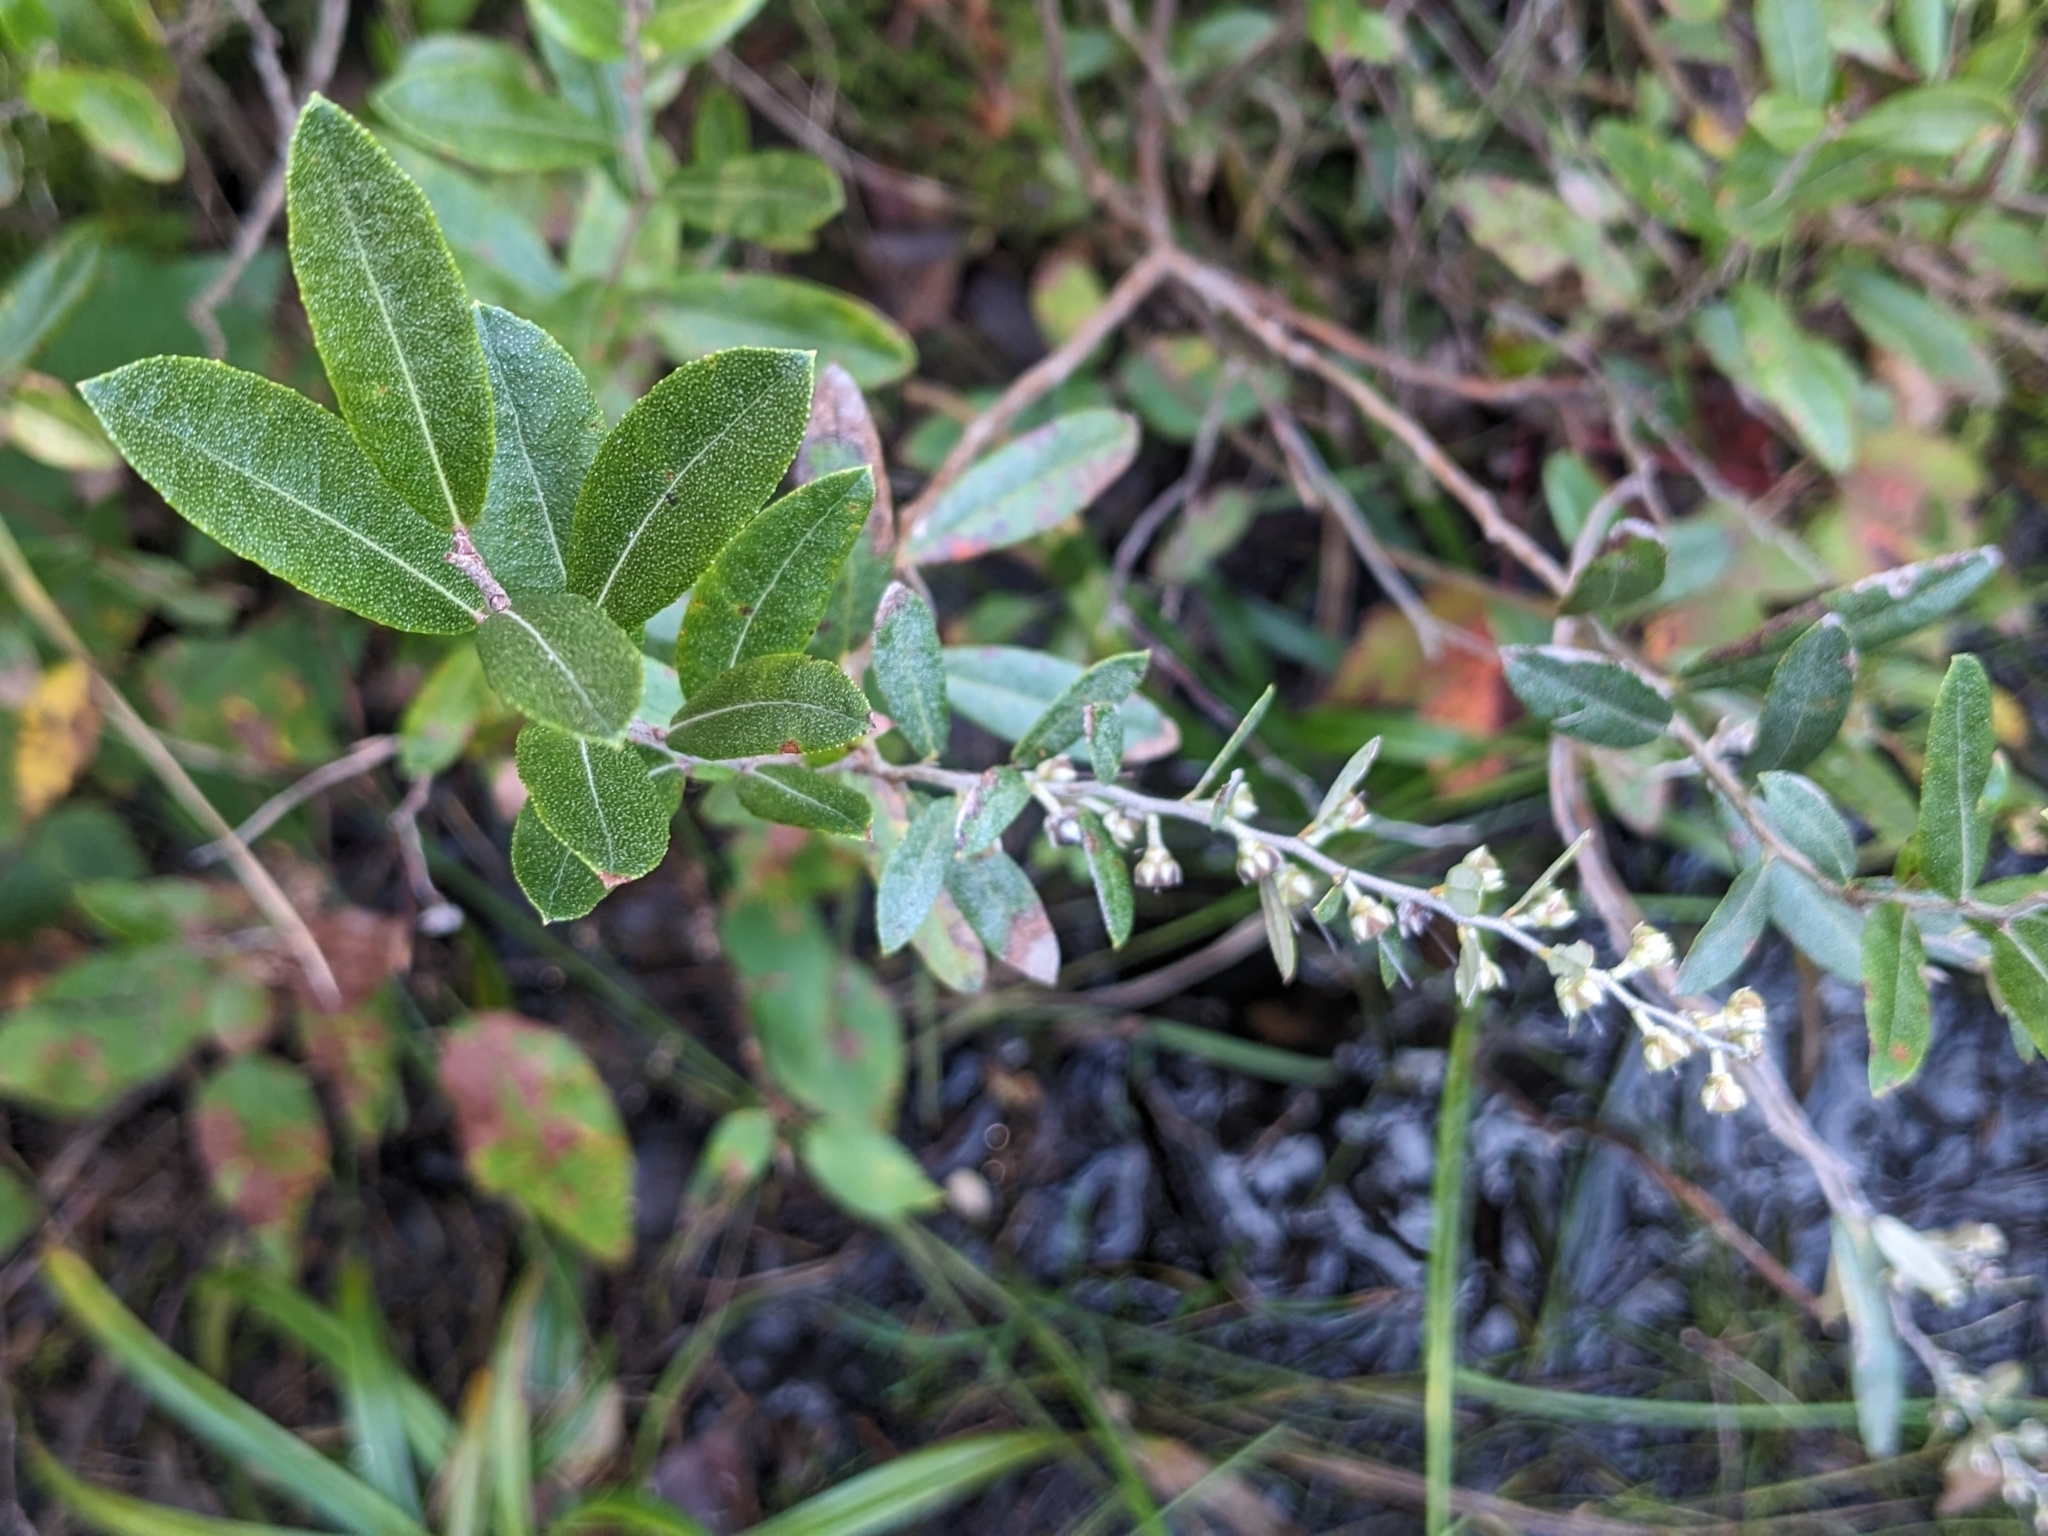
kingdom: Plantae
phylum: Tracheophyta
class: Magnoliopsida
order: Ericales
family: Ericaceae
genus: Chamaedaphne
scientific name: Chamaedaphne calyculata
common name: Leatherleaf
